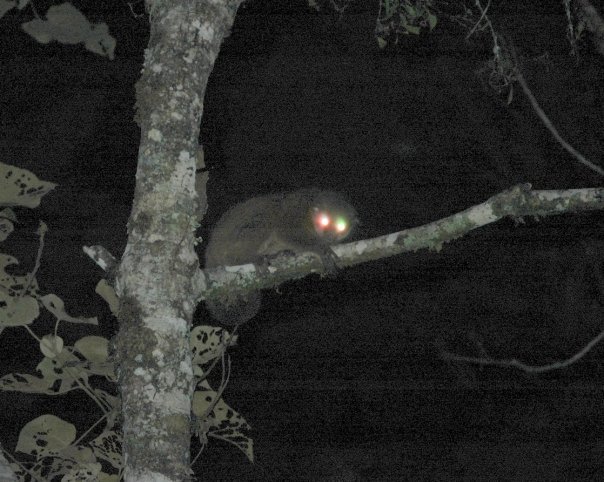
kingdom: Animalia
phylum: Chordata
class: Mammalia
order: Primates
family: Cheirogaleidae
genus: Cheirogaleus
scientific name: Cheirogaleus crossleyi
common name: Furry-eared dwarf lemur
